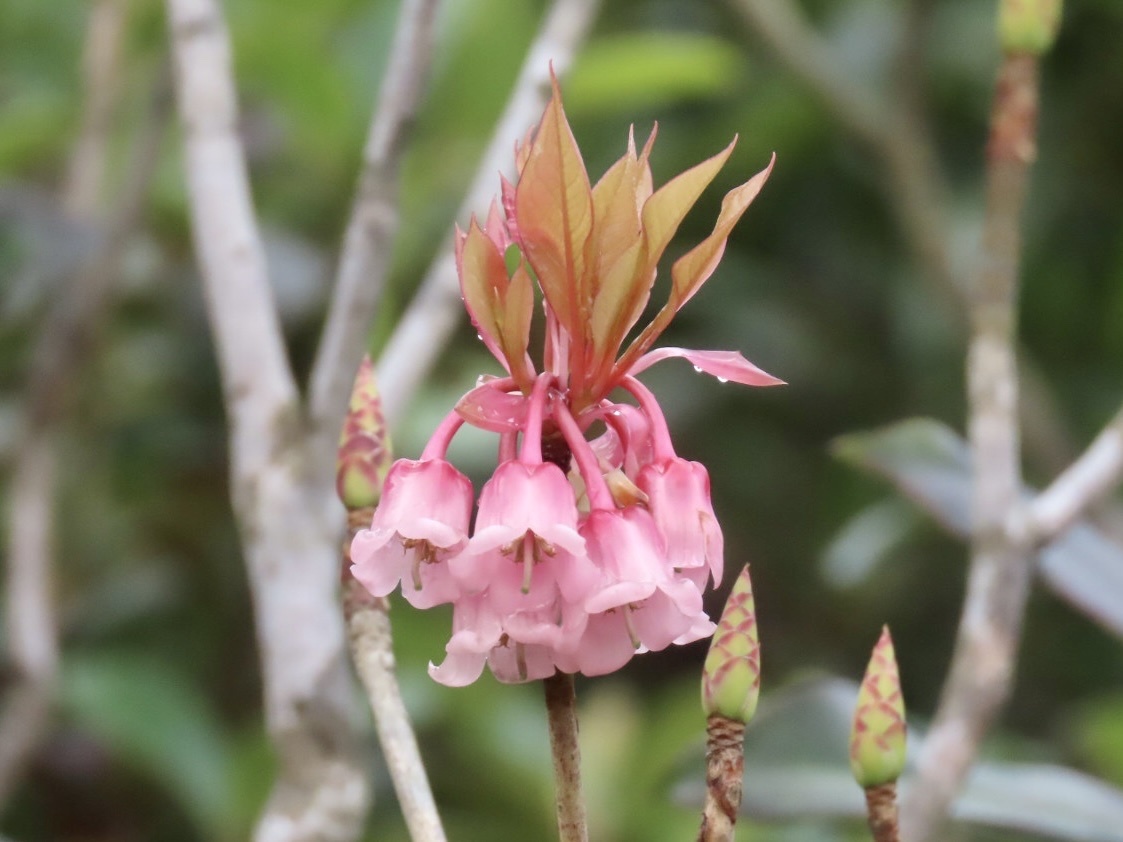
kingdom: Plantae
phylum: Tracheophyta
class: Magnoliopsida
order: Ericales
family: Ericaceae
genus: Enkianthus
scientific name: Enkianthus quinqueflorus
